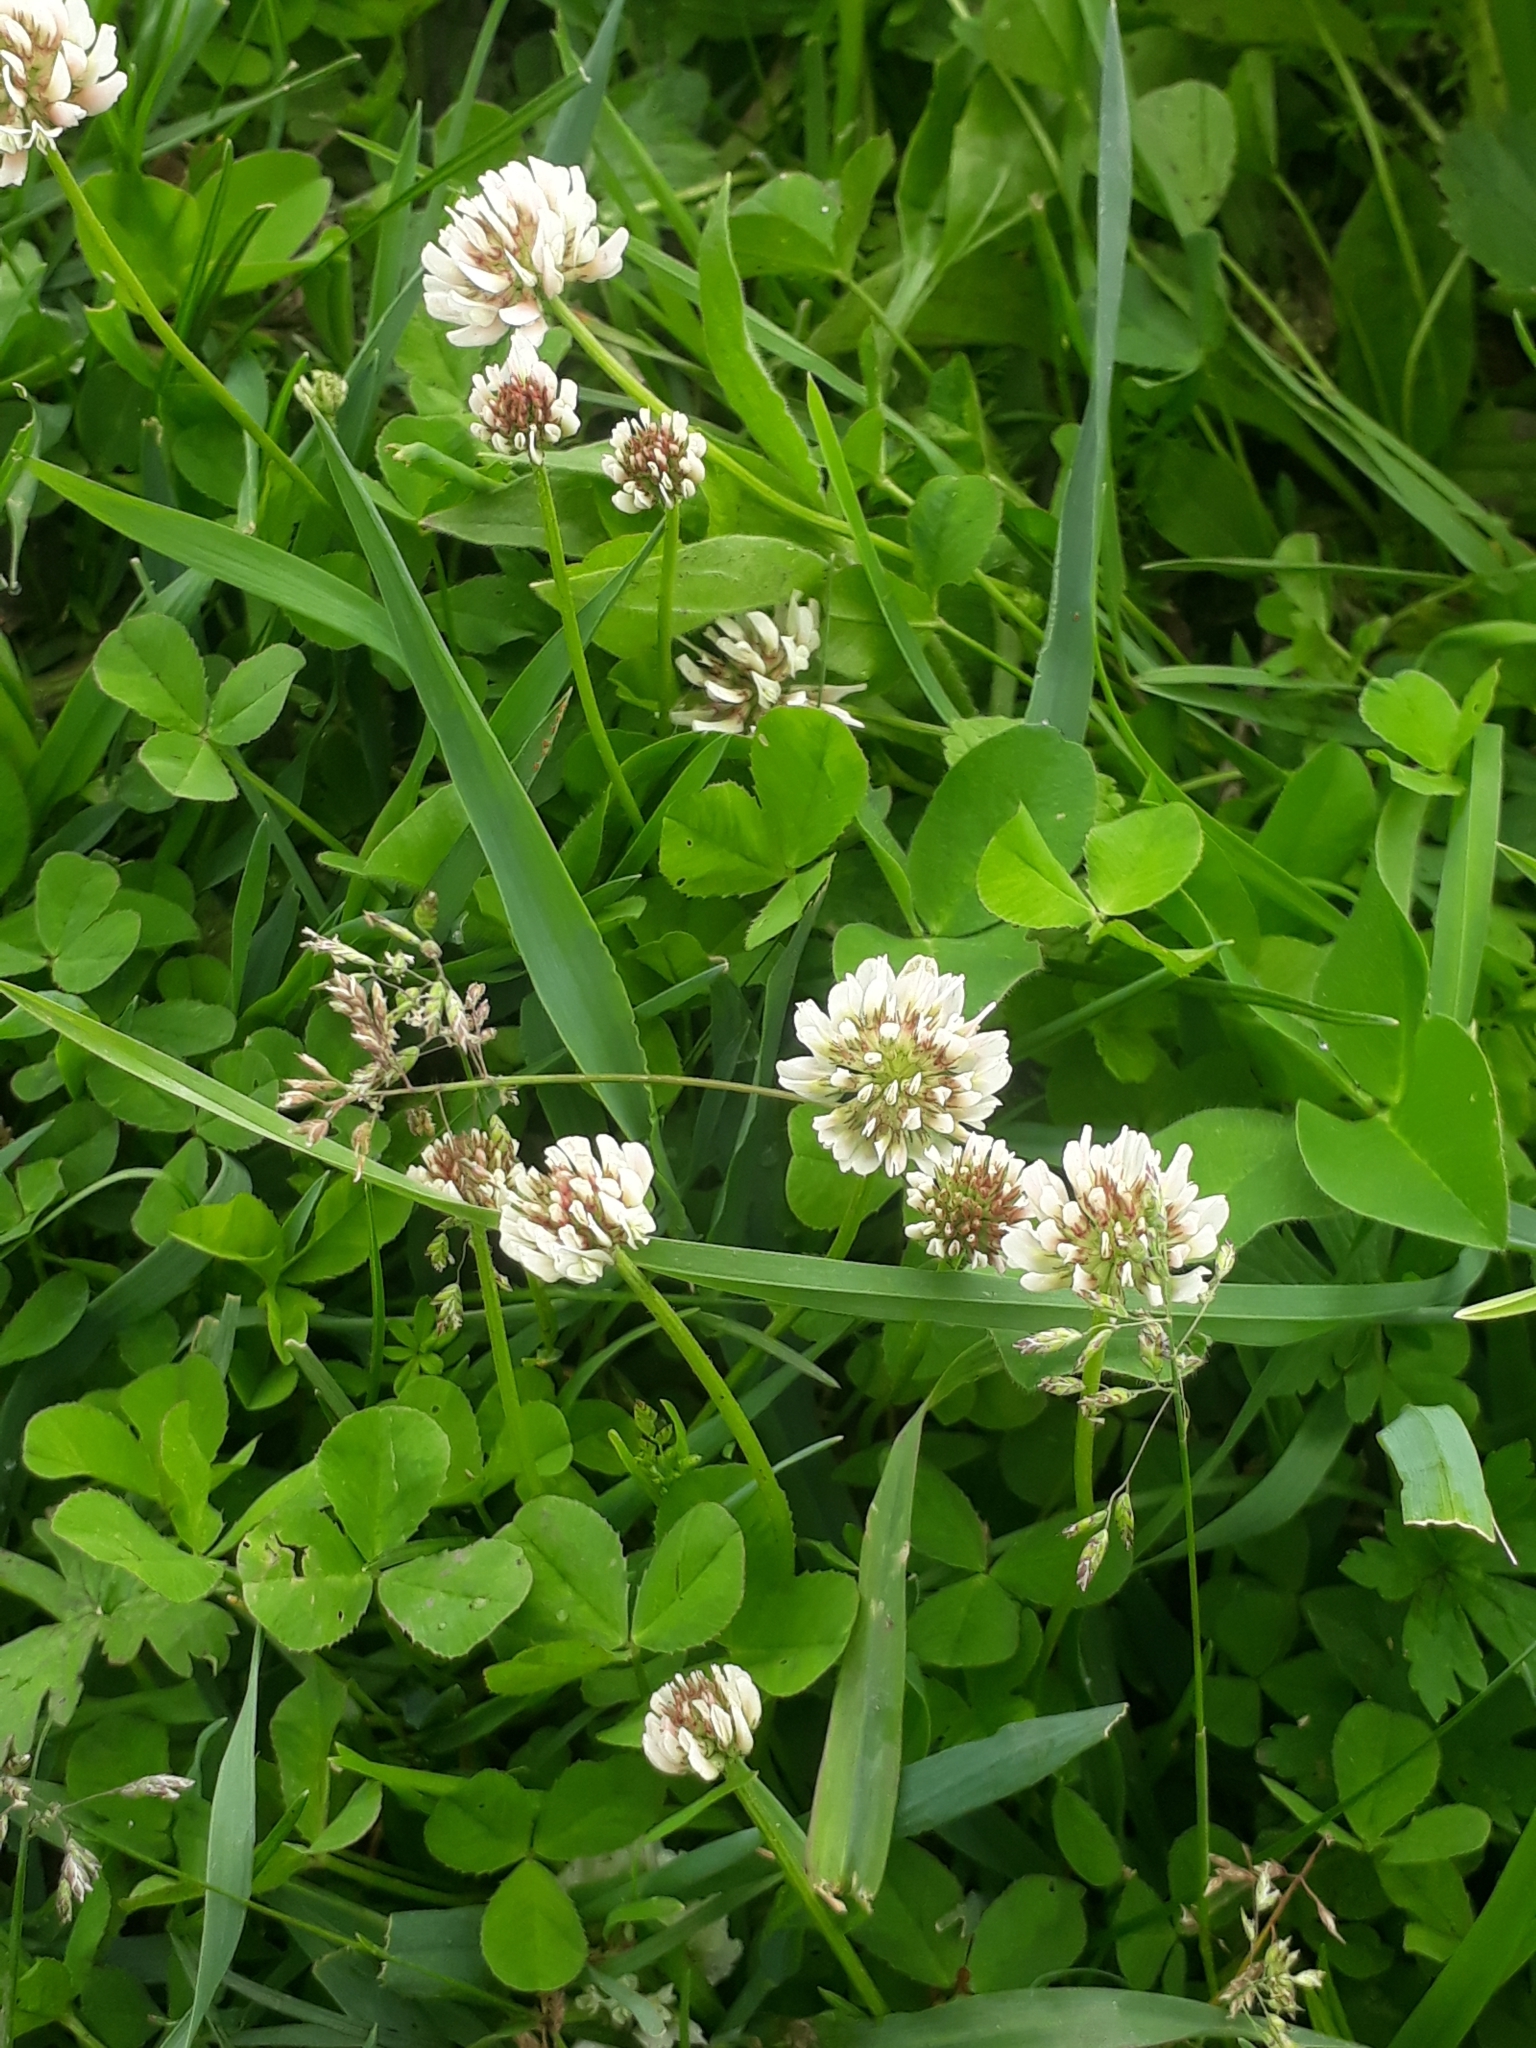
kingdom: Plantae
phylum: Tracheophyta
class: Magnoliopsida
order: Fabales
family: Fabaceae
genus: Trifolium
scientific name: Trifolium repens
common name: White clover
